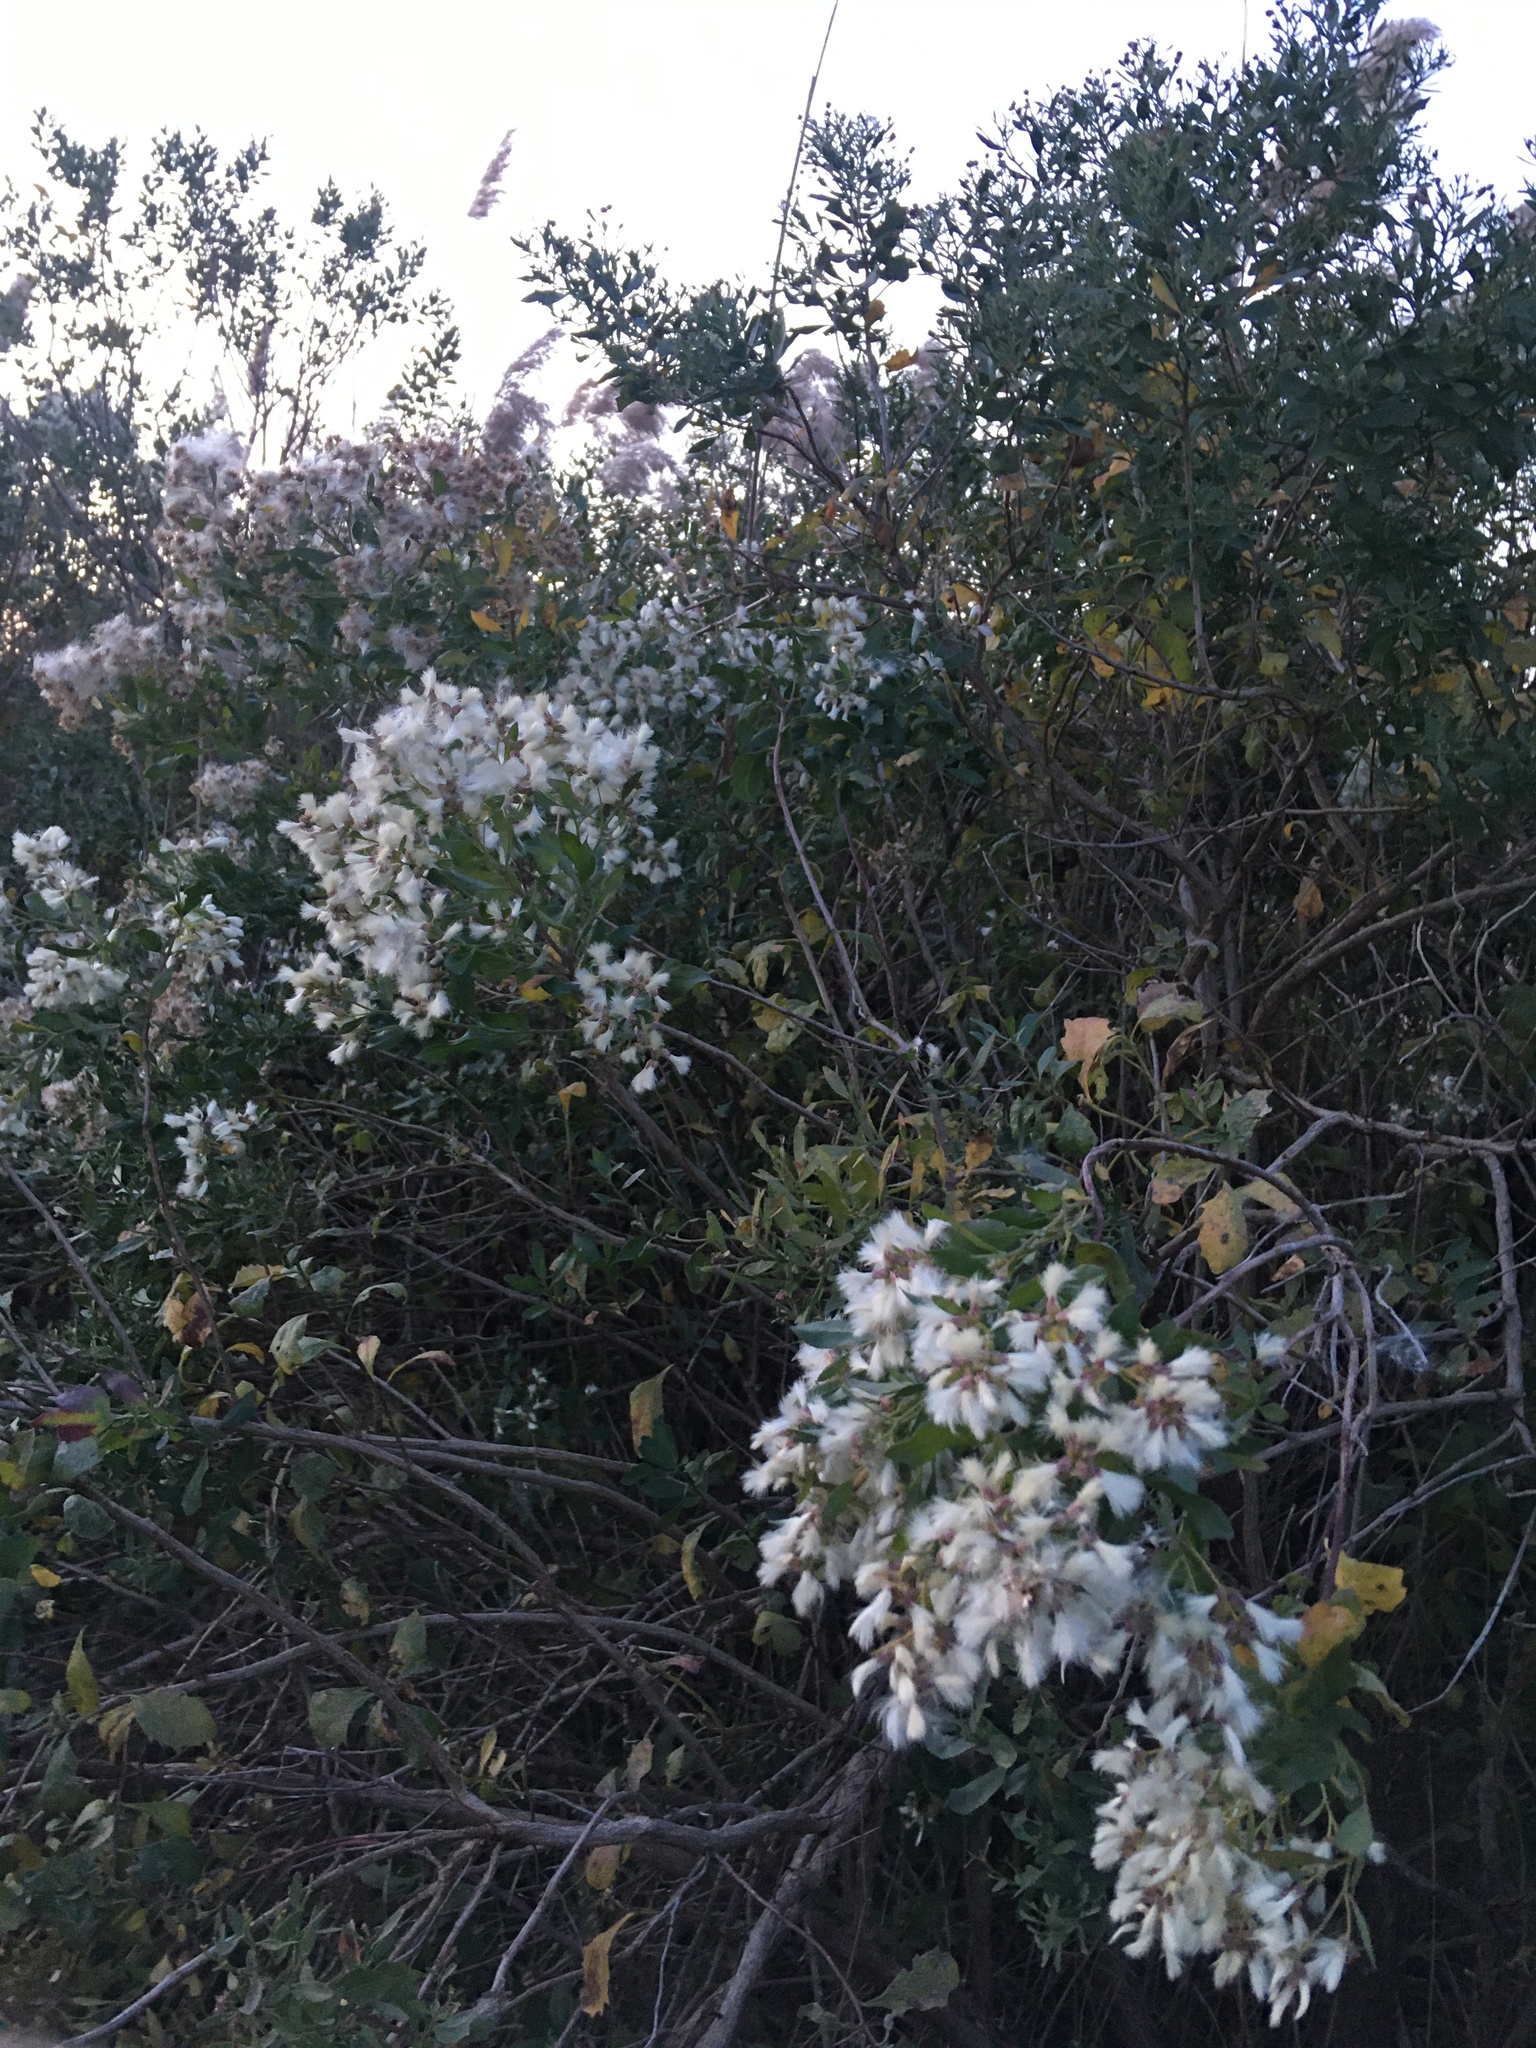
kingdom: Plantae
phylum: Tracheophyta
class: Magnoliopsida
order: Asterales
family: Asteraceae
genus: Baccharis
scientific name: Baccharis halimifolia
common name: Eastern baccharis
